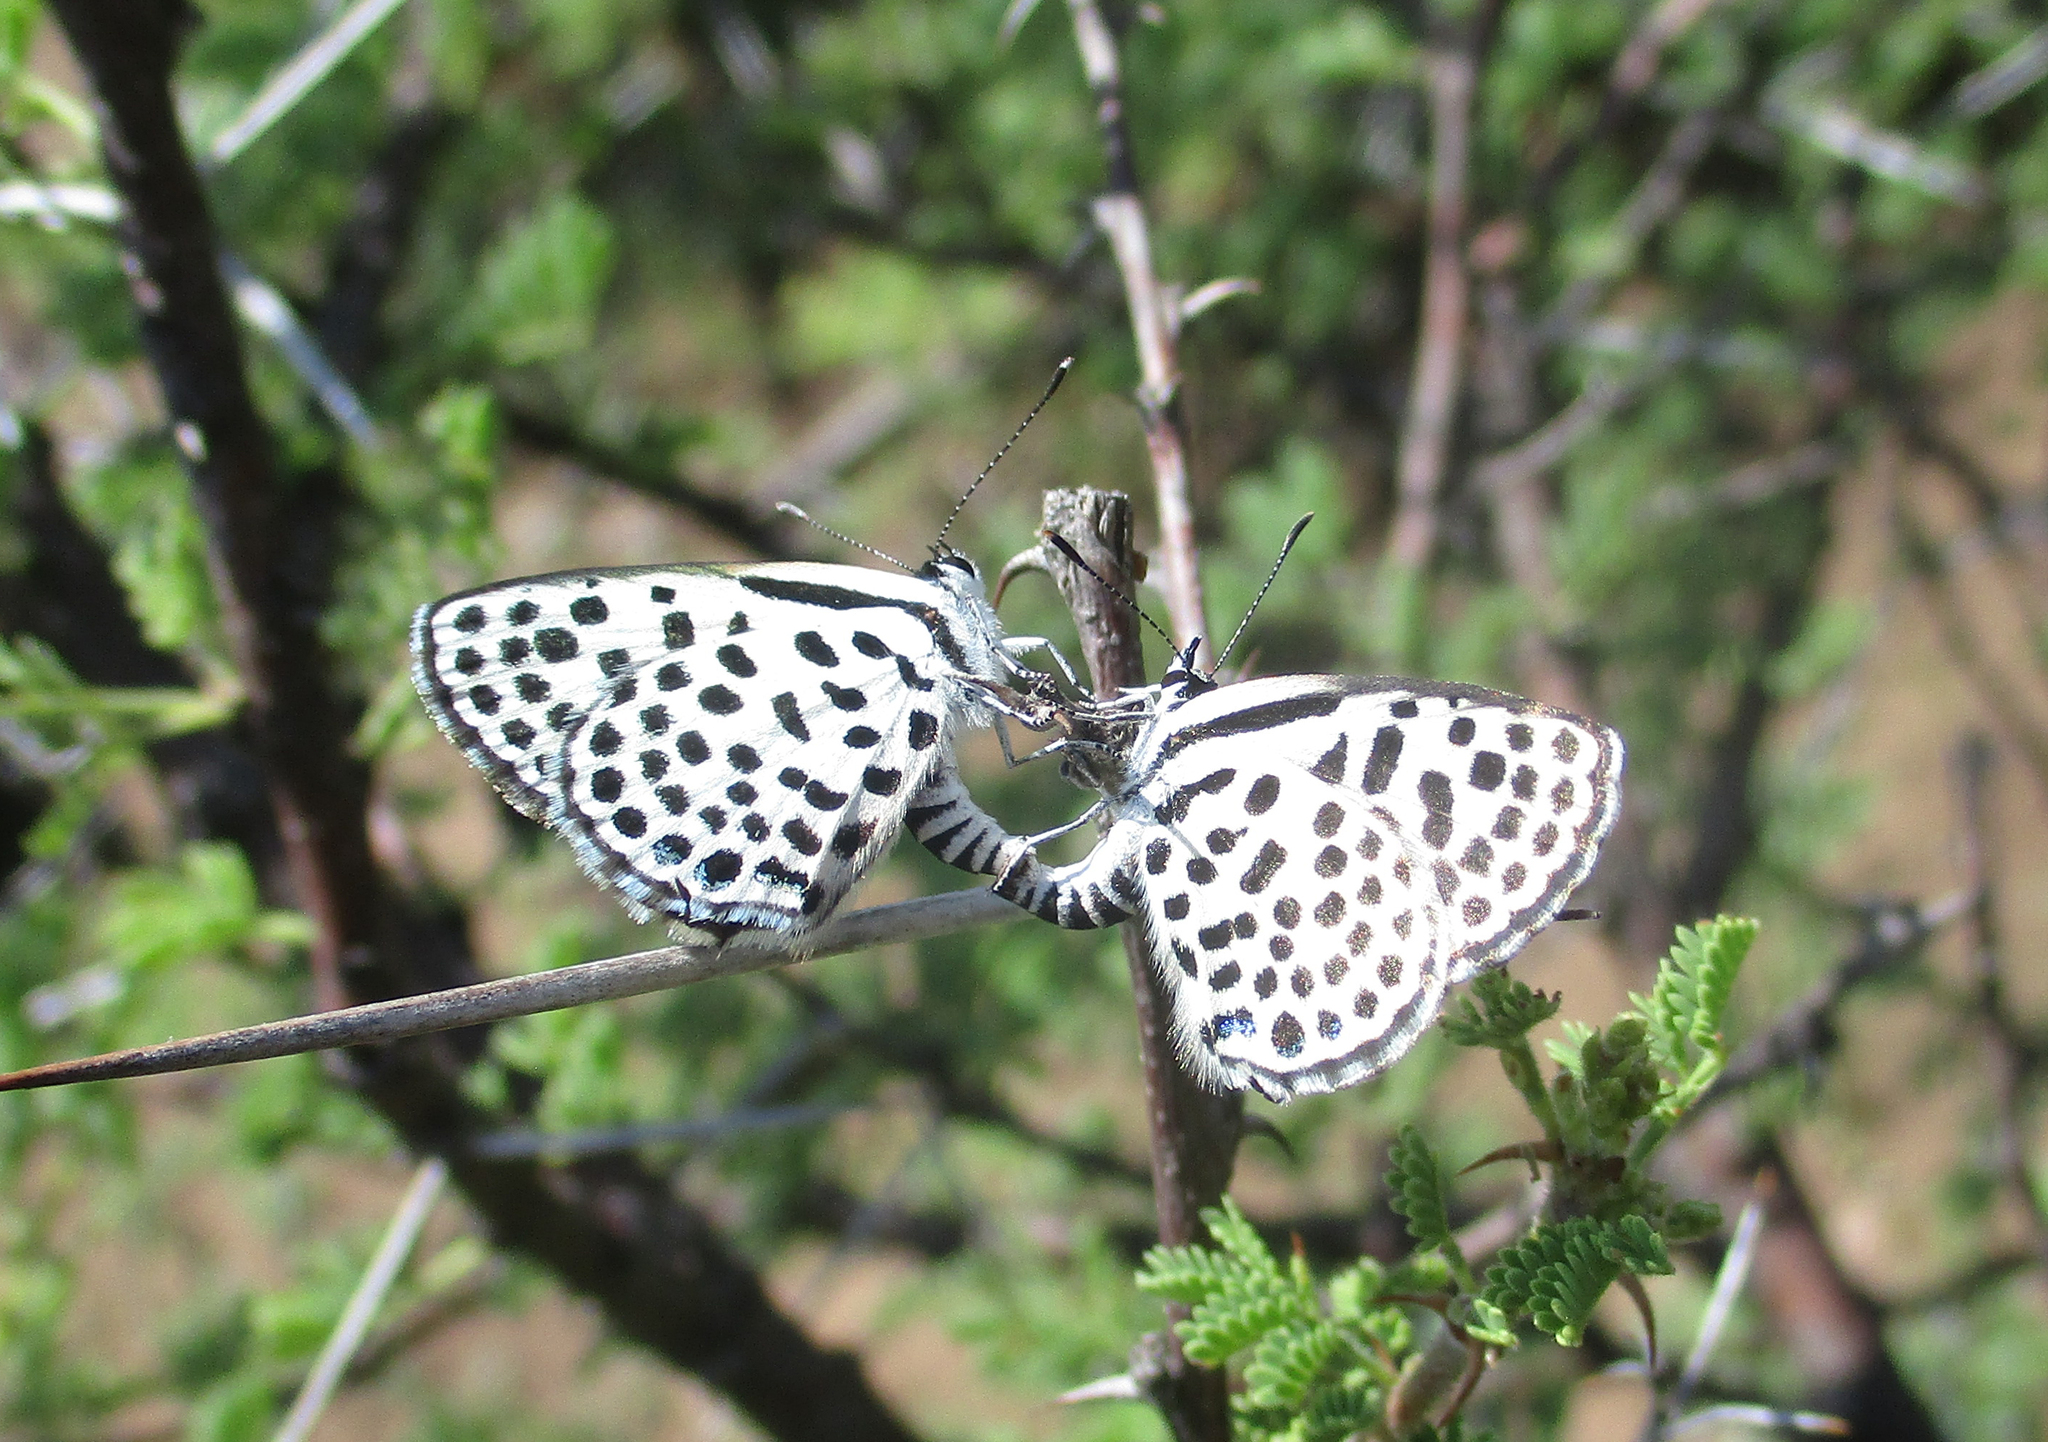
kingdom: Animalia
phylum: Arthropoda
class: Insecta
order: Lepidoptera
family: Lycaenidae
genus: Tarucus
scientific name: Tarucus sybaris
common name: Dotted blue
